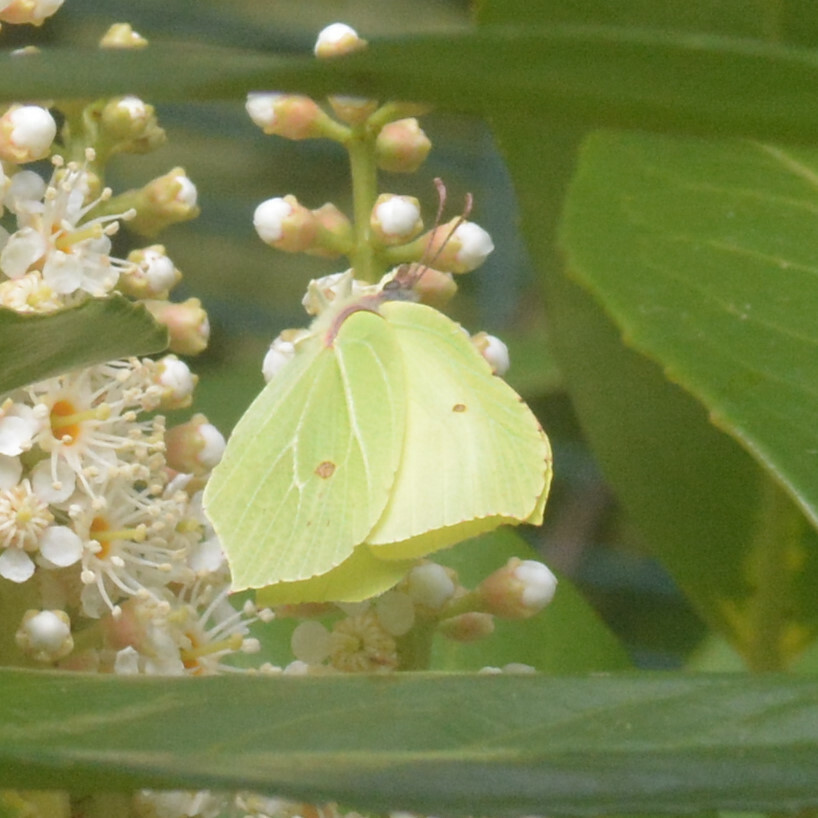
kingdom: Animalia
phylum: Arthropoda
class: Insecta
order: Lepidoptera
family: Pieridae
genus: Gonepteryx
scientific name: Gonepteryx rhamni
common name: Brimstone
